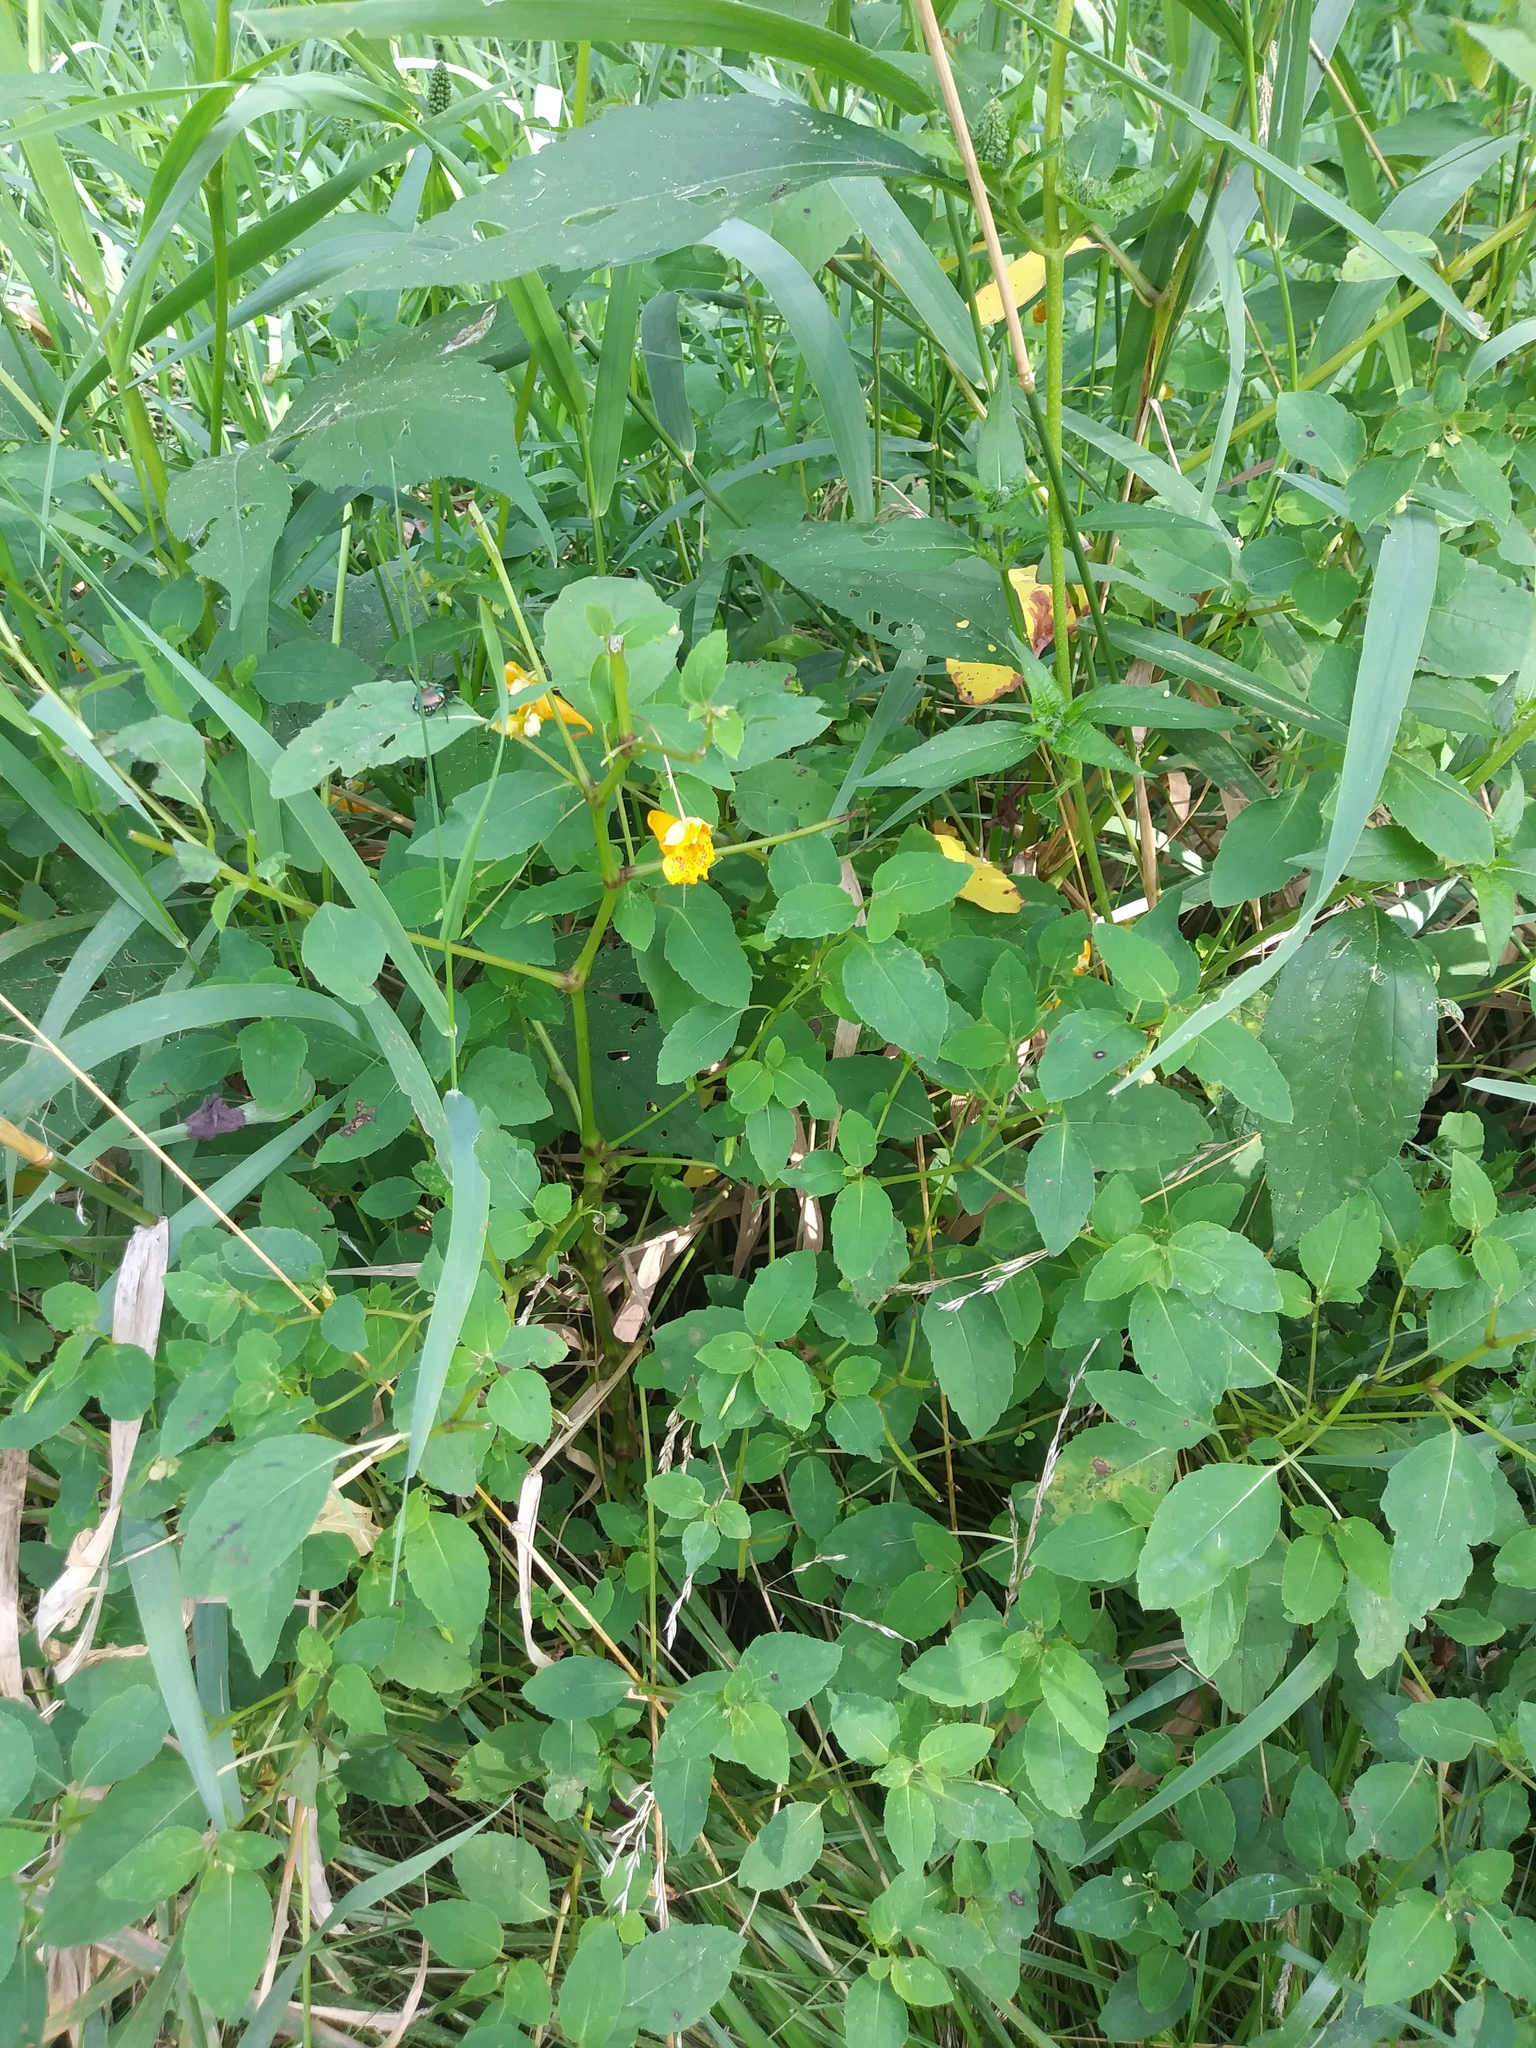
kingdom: Plantae
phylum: Tracheophyta
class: Magnoliopsida
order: Ericales
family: Balsaminaceae
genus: Impatiens
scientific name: Impatiens capensis
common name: Orange balsam
